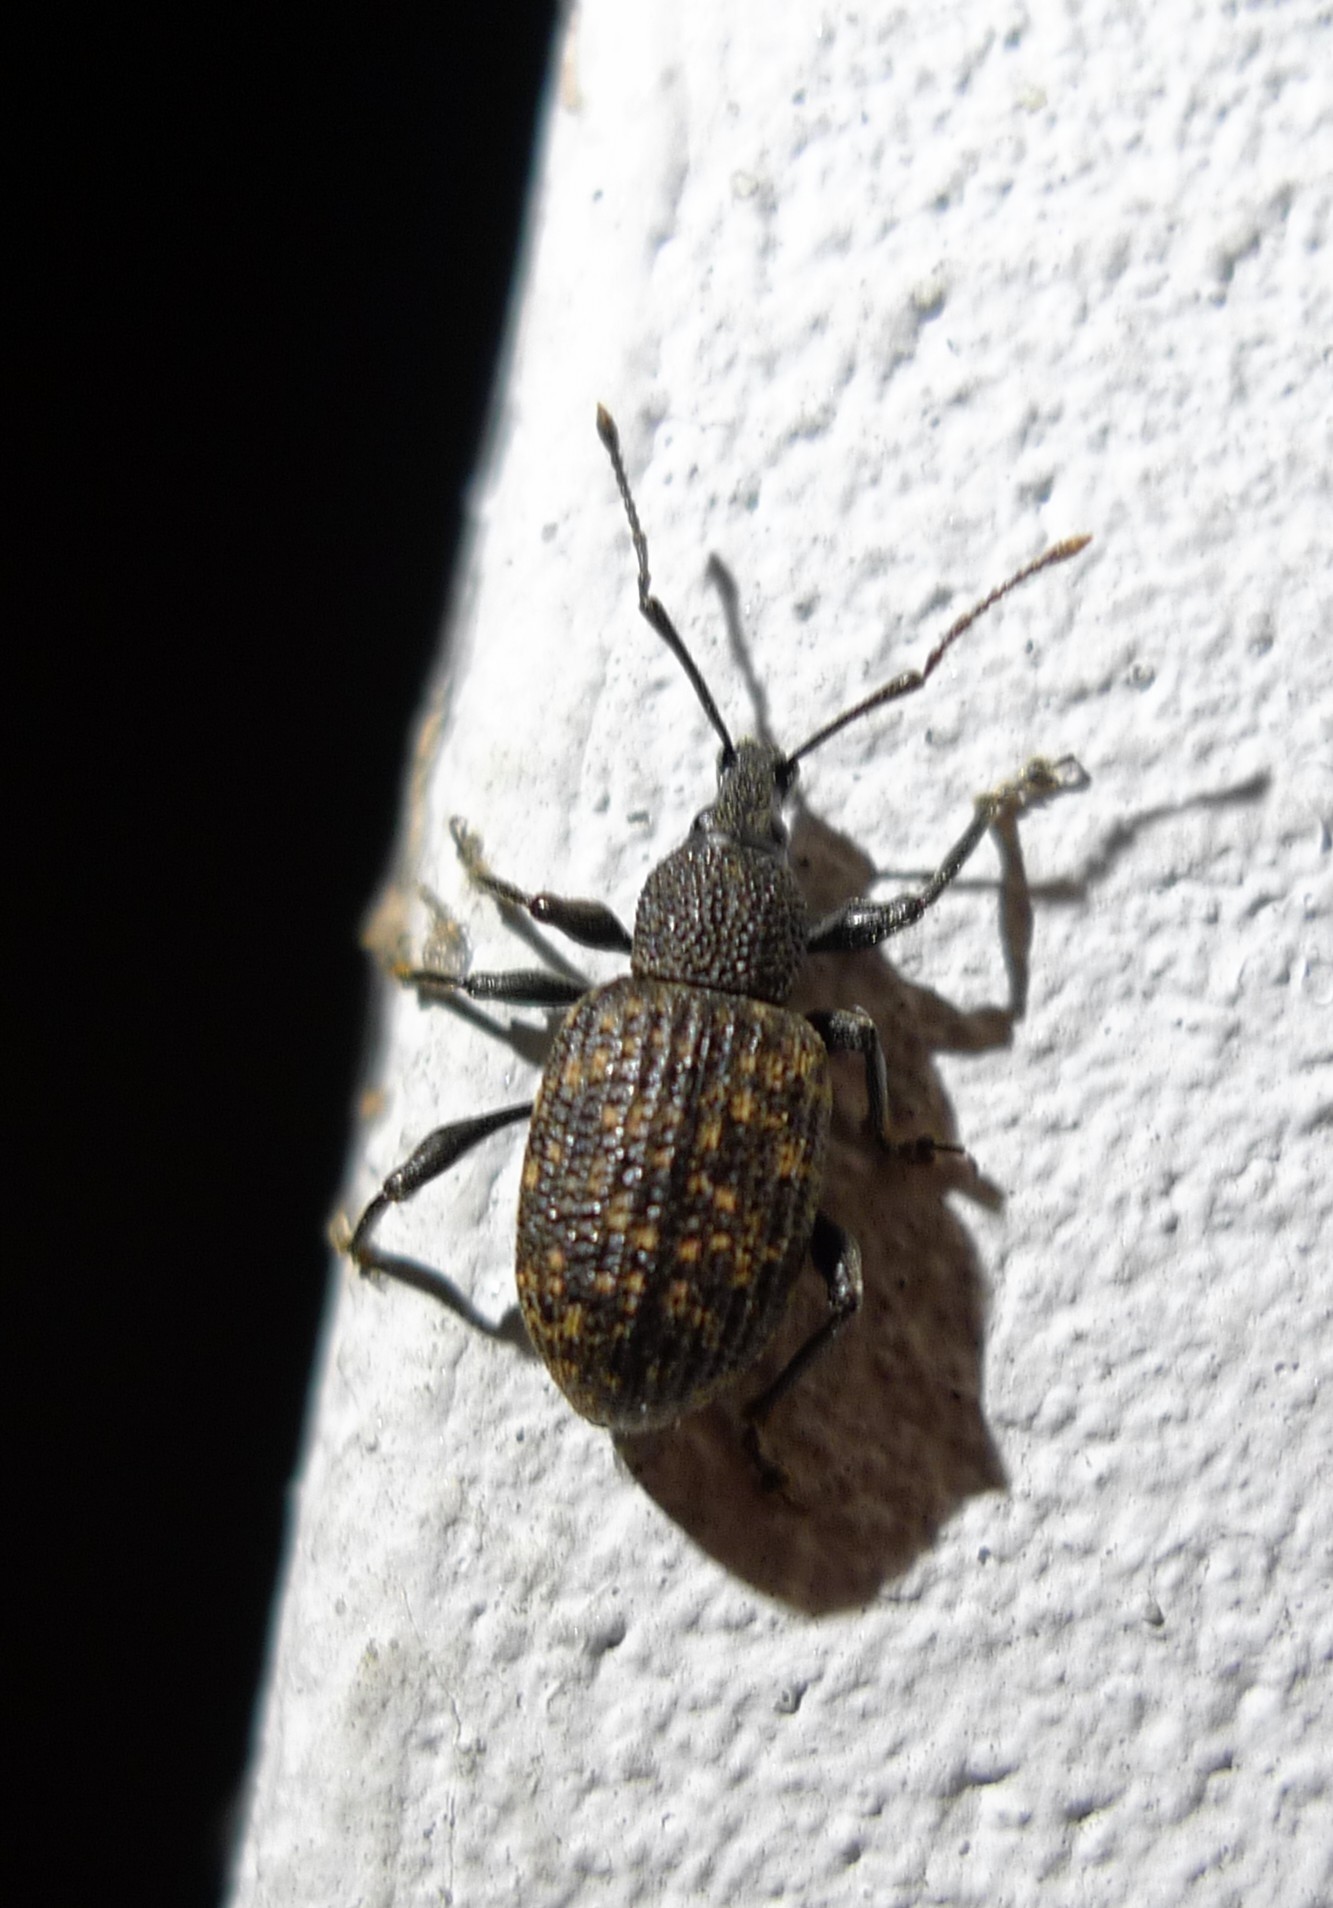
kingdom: Animalia
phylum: Arthropoda
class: Insecta
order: Coleoptera
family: Curculionidae
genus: Otiorhynchus
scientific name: Otiorhynchus sulcatus
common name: Black vine weevil
